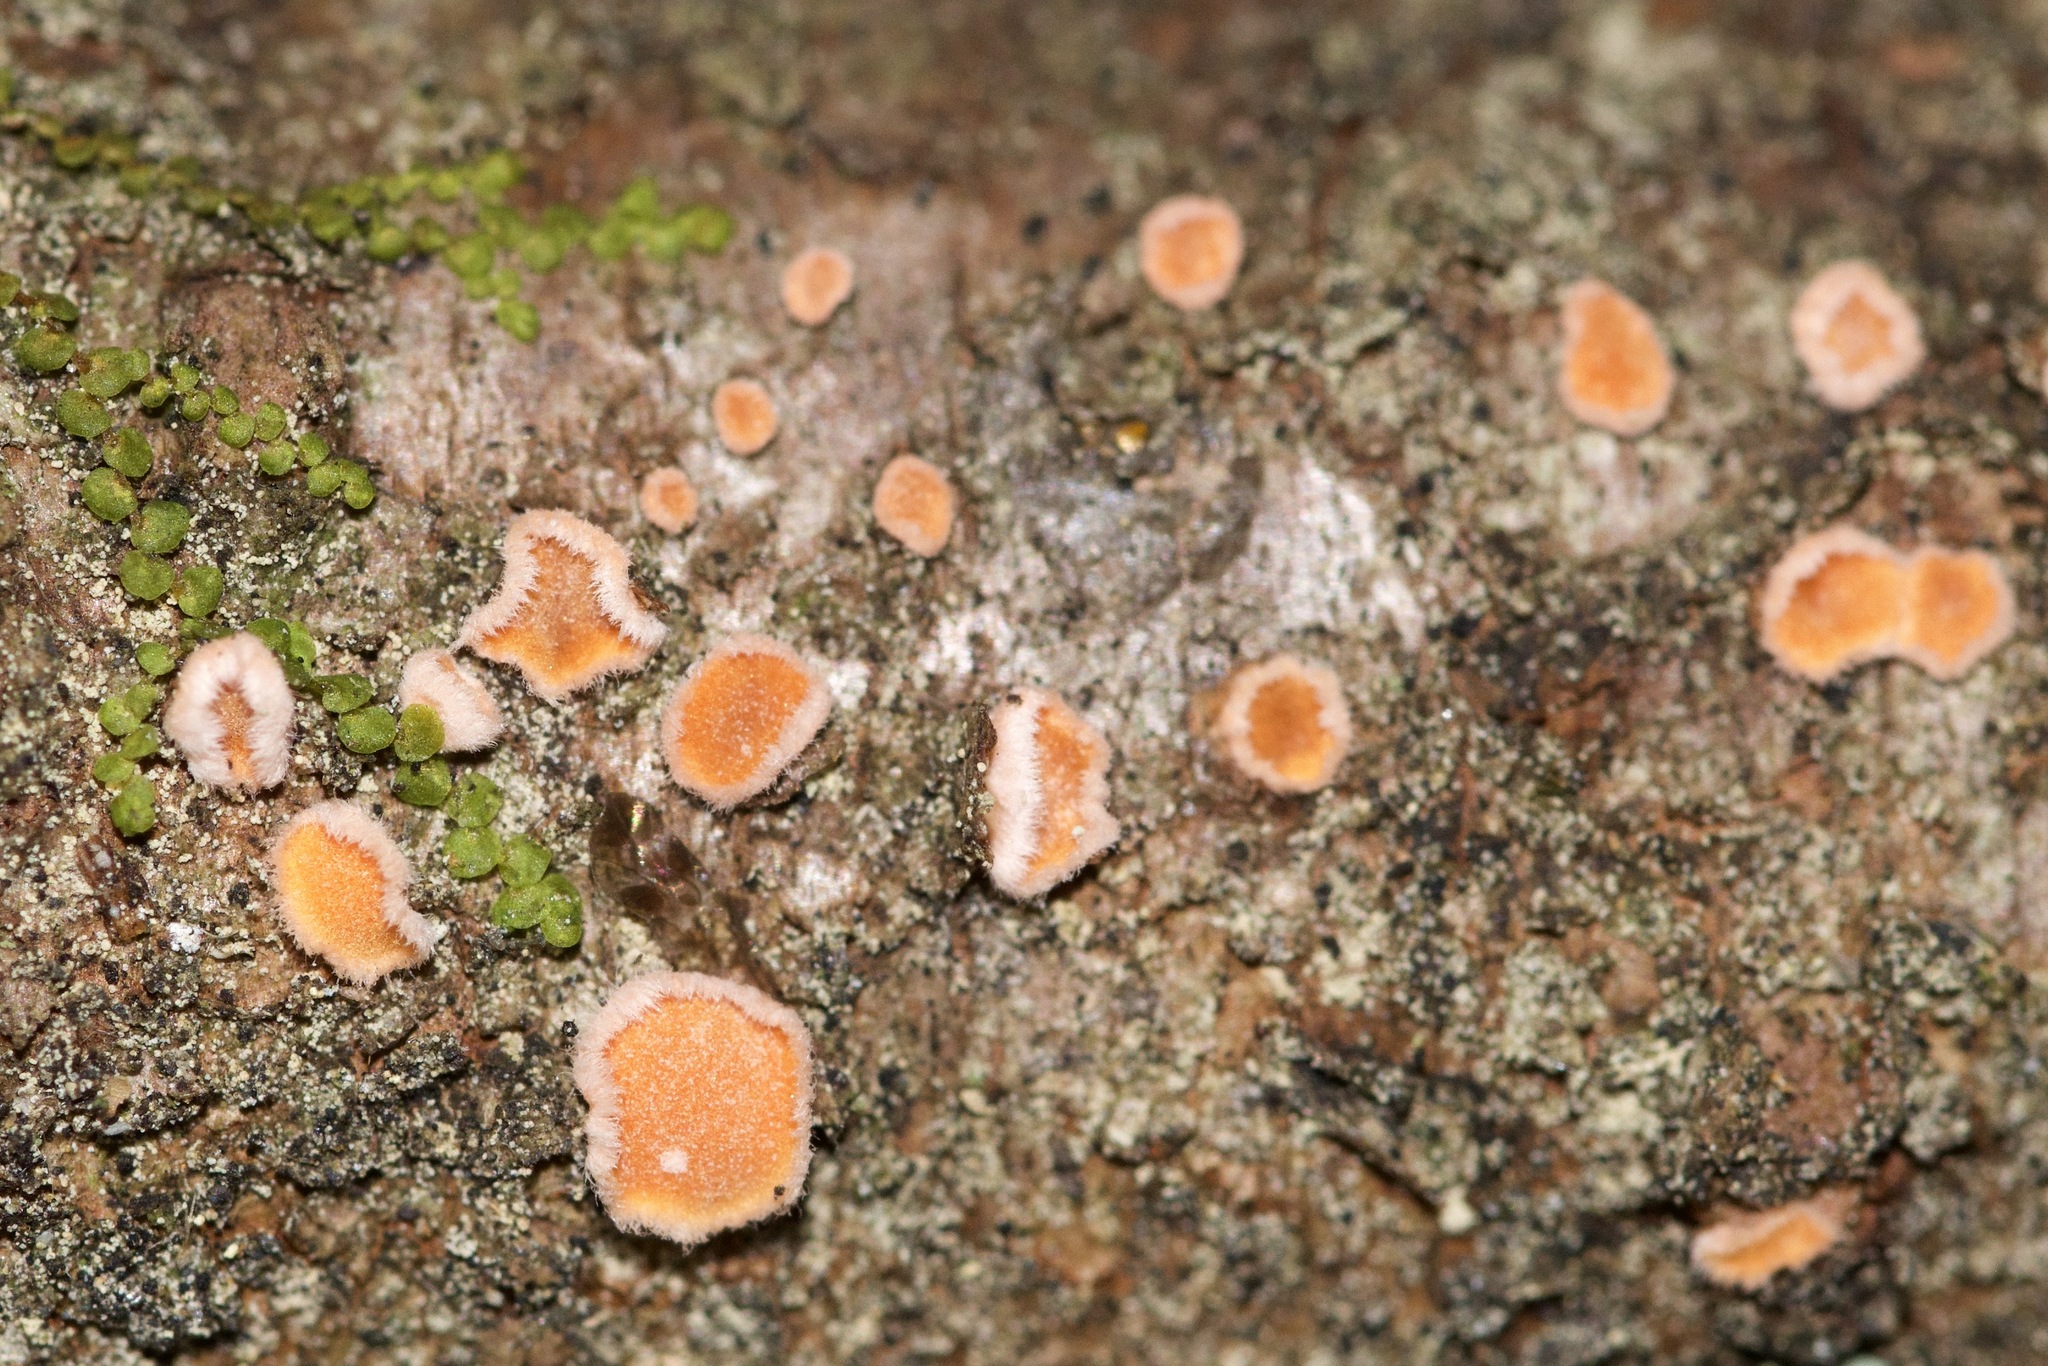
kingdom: Fungi
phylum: Basidiomycota
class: Agaricomycetes
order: Russulales
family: Stereaceae
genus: Aleurodiscus
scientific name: Aleurodiscus amorphus
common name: Orange discus
